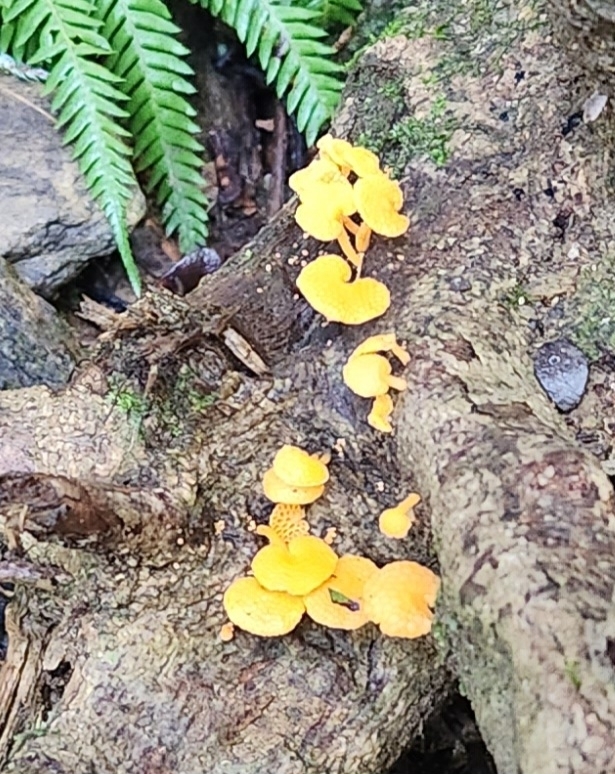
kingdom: Fungi
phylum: Basidiomycota
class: Agaricomycetes
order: Agaricales
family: Mycenaceae
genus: Favolaschia
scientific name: Favolaschia claudopus
